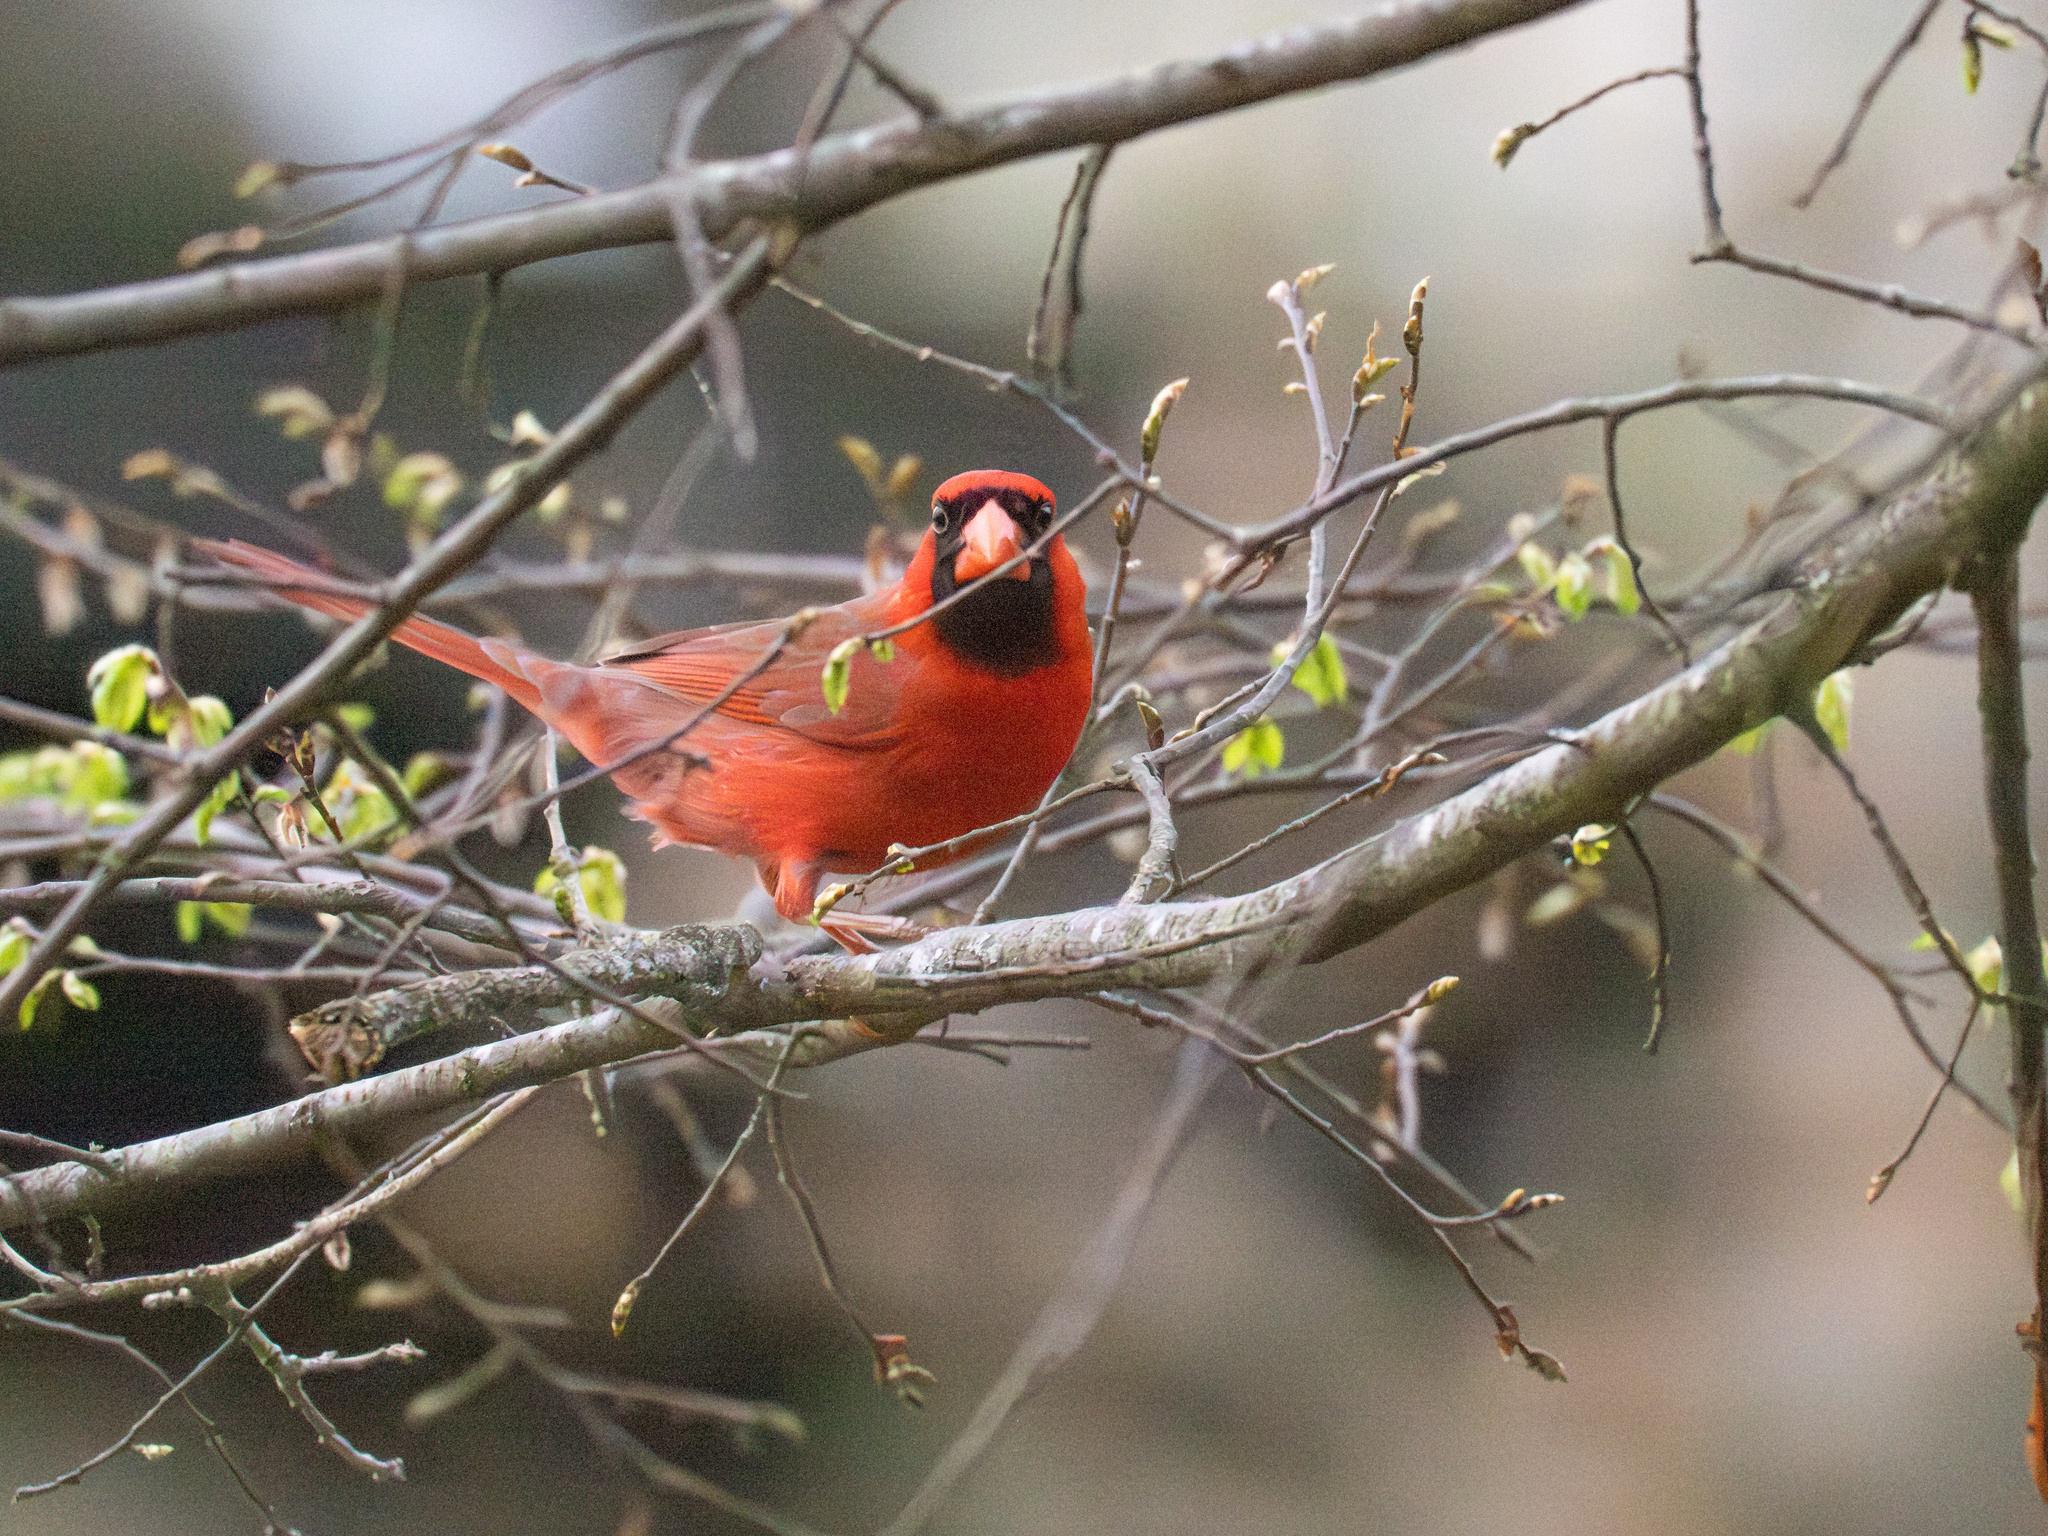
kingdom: Animalia
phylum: Chordata
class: Aves
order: Passeriformes
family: Cardinalidae
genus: Cardinalis
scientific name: Cardinalis cardinalis
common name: Northern cardinal
